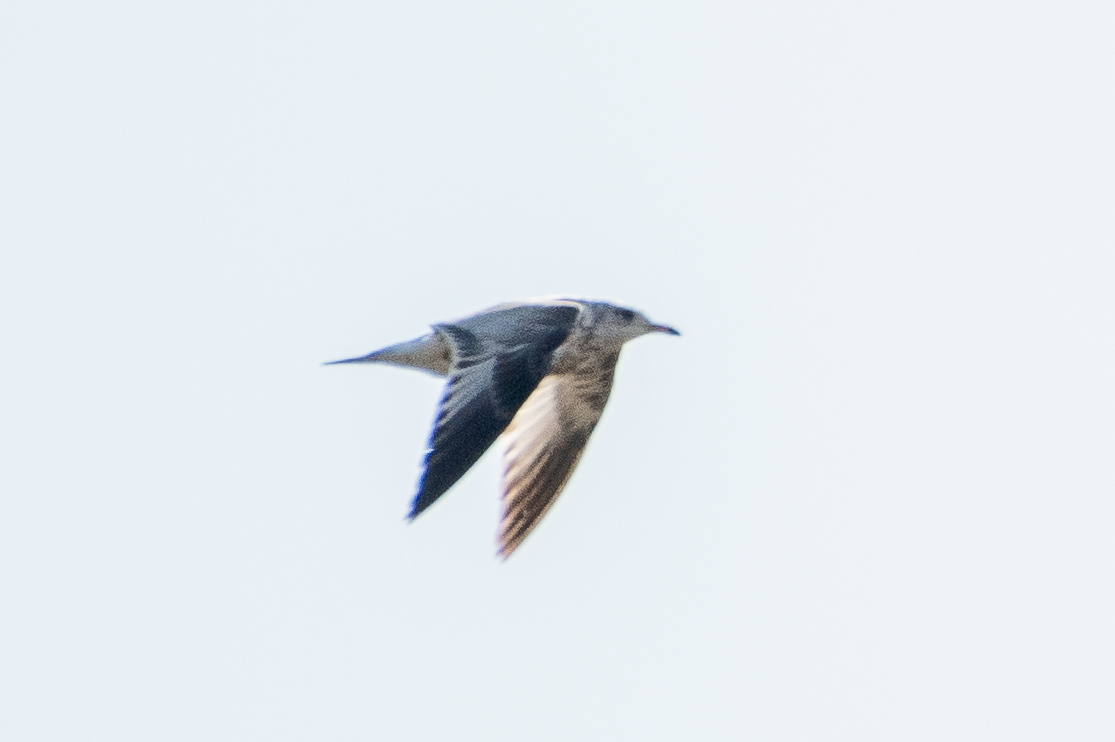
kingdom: Animalia
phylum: Chordata
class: Aves
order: Charadriiformes
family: Laridae
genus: Larus
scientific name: Larus delawarensis
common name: Ring-billed gull
